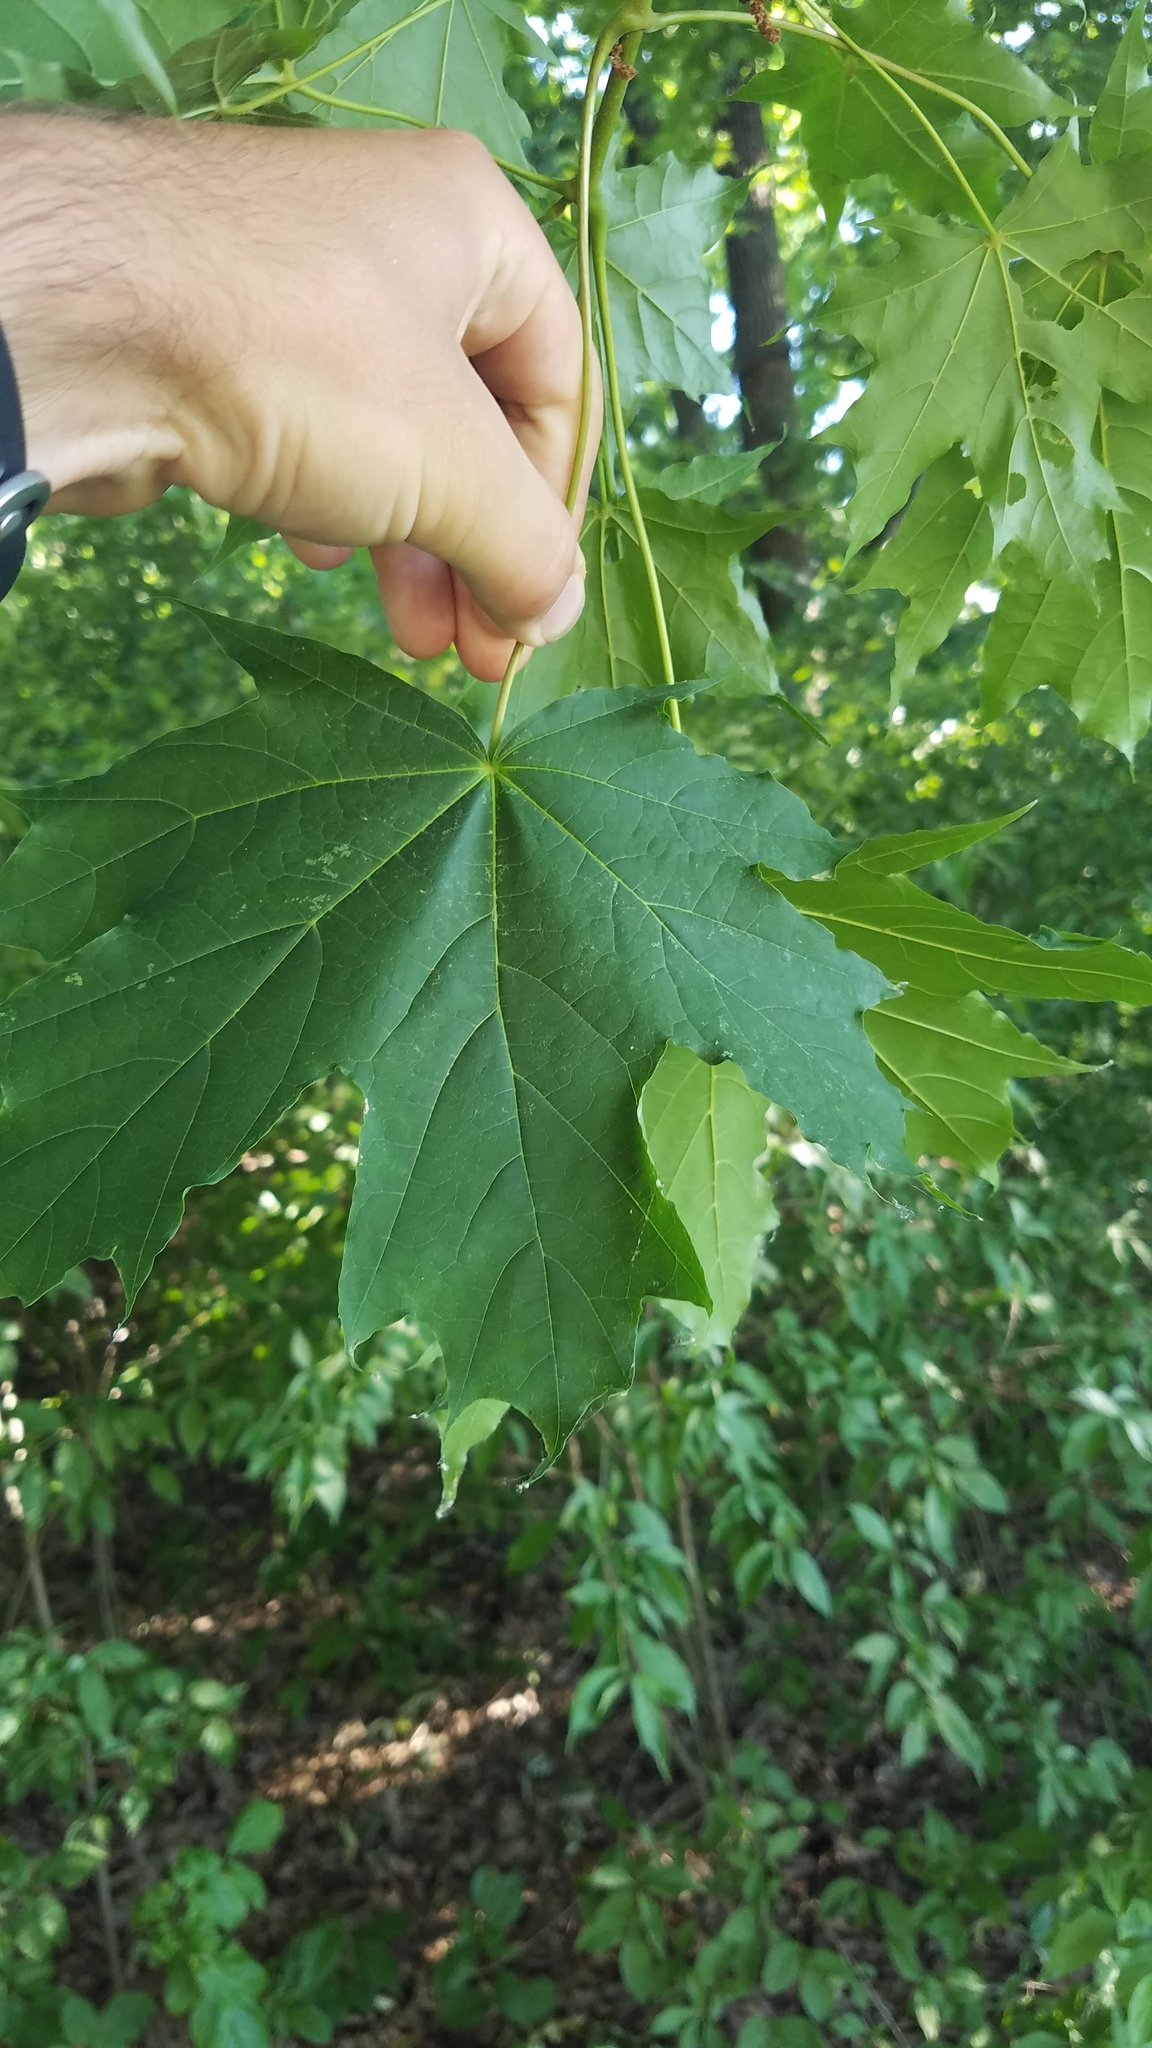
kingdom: Plantae
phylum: Tracheophyta
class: Magnoliopsida
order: Sapindales
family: Sapindaceae
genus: Acer
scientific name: Acer platanoides
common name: Norway maple
